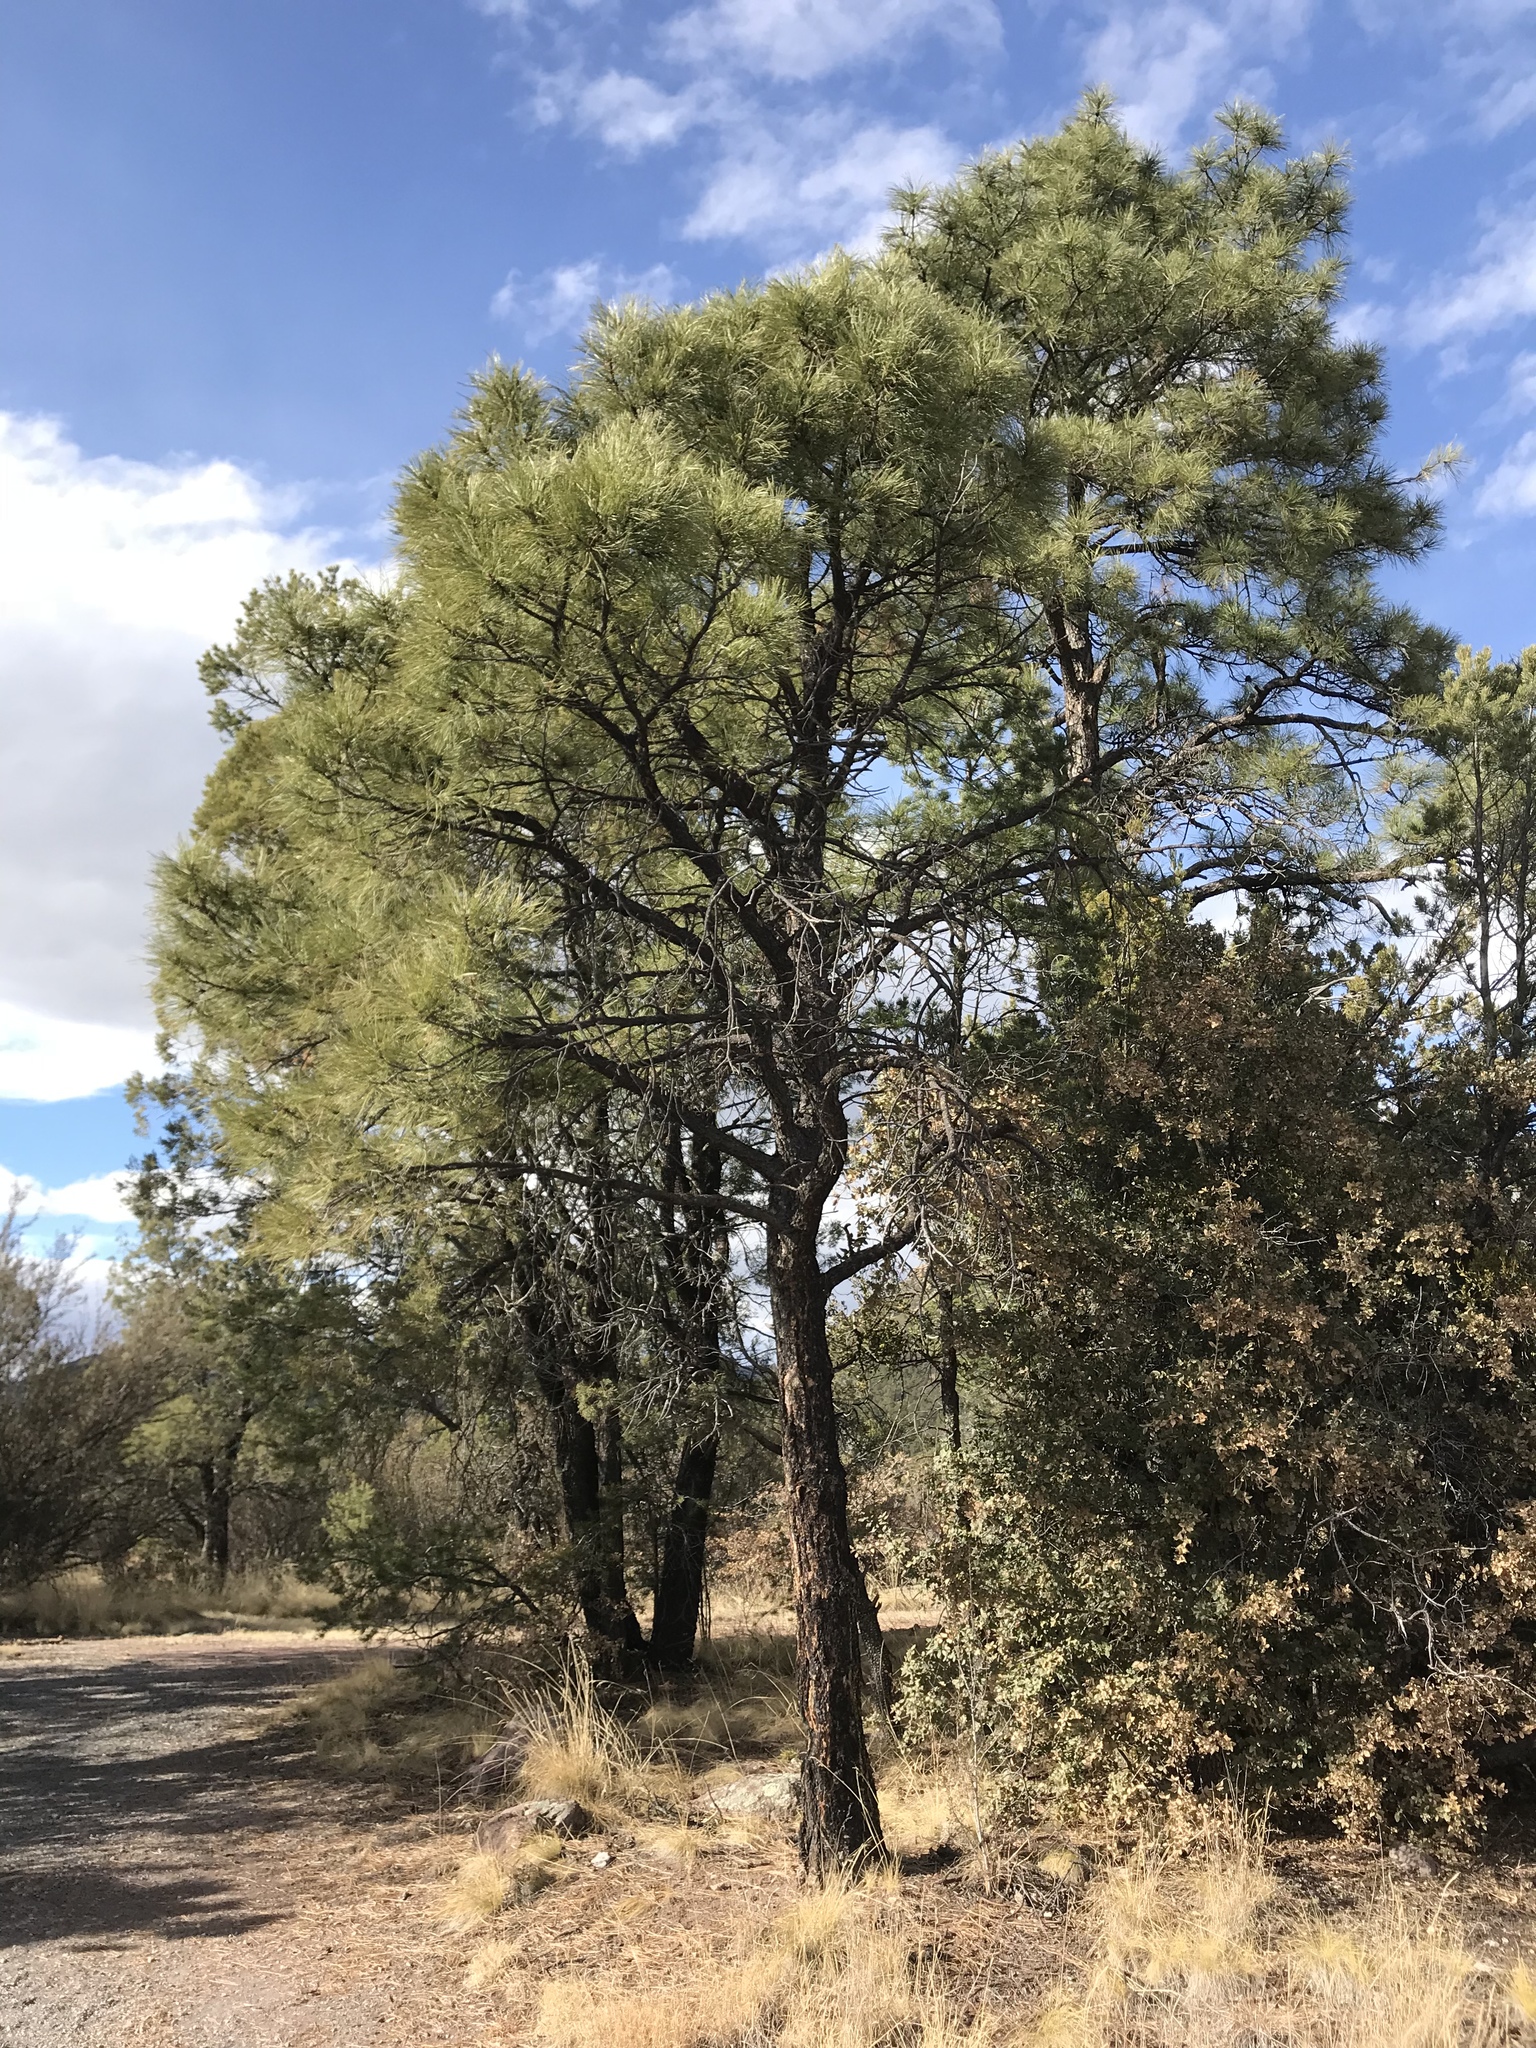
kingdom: Plantae
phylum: Tracheophyta
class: Pinopsida
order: Pinales
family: Pinaceae
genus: Pinus
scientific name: Pinus ponderosa
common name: Western yellow-pine
